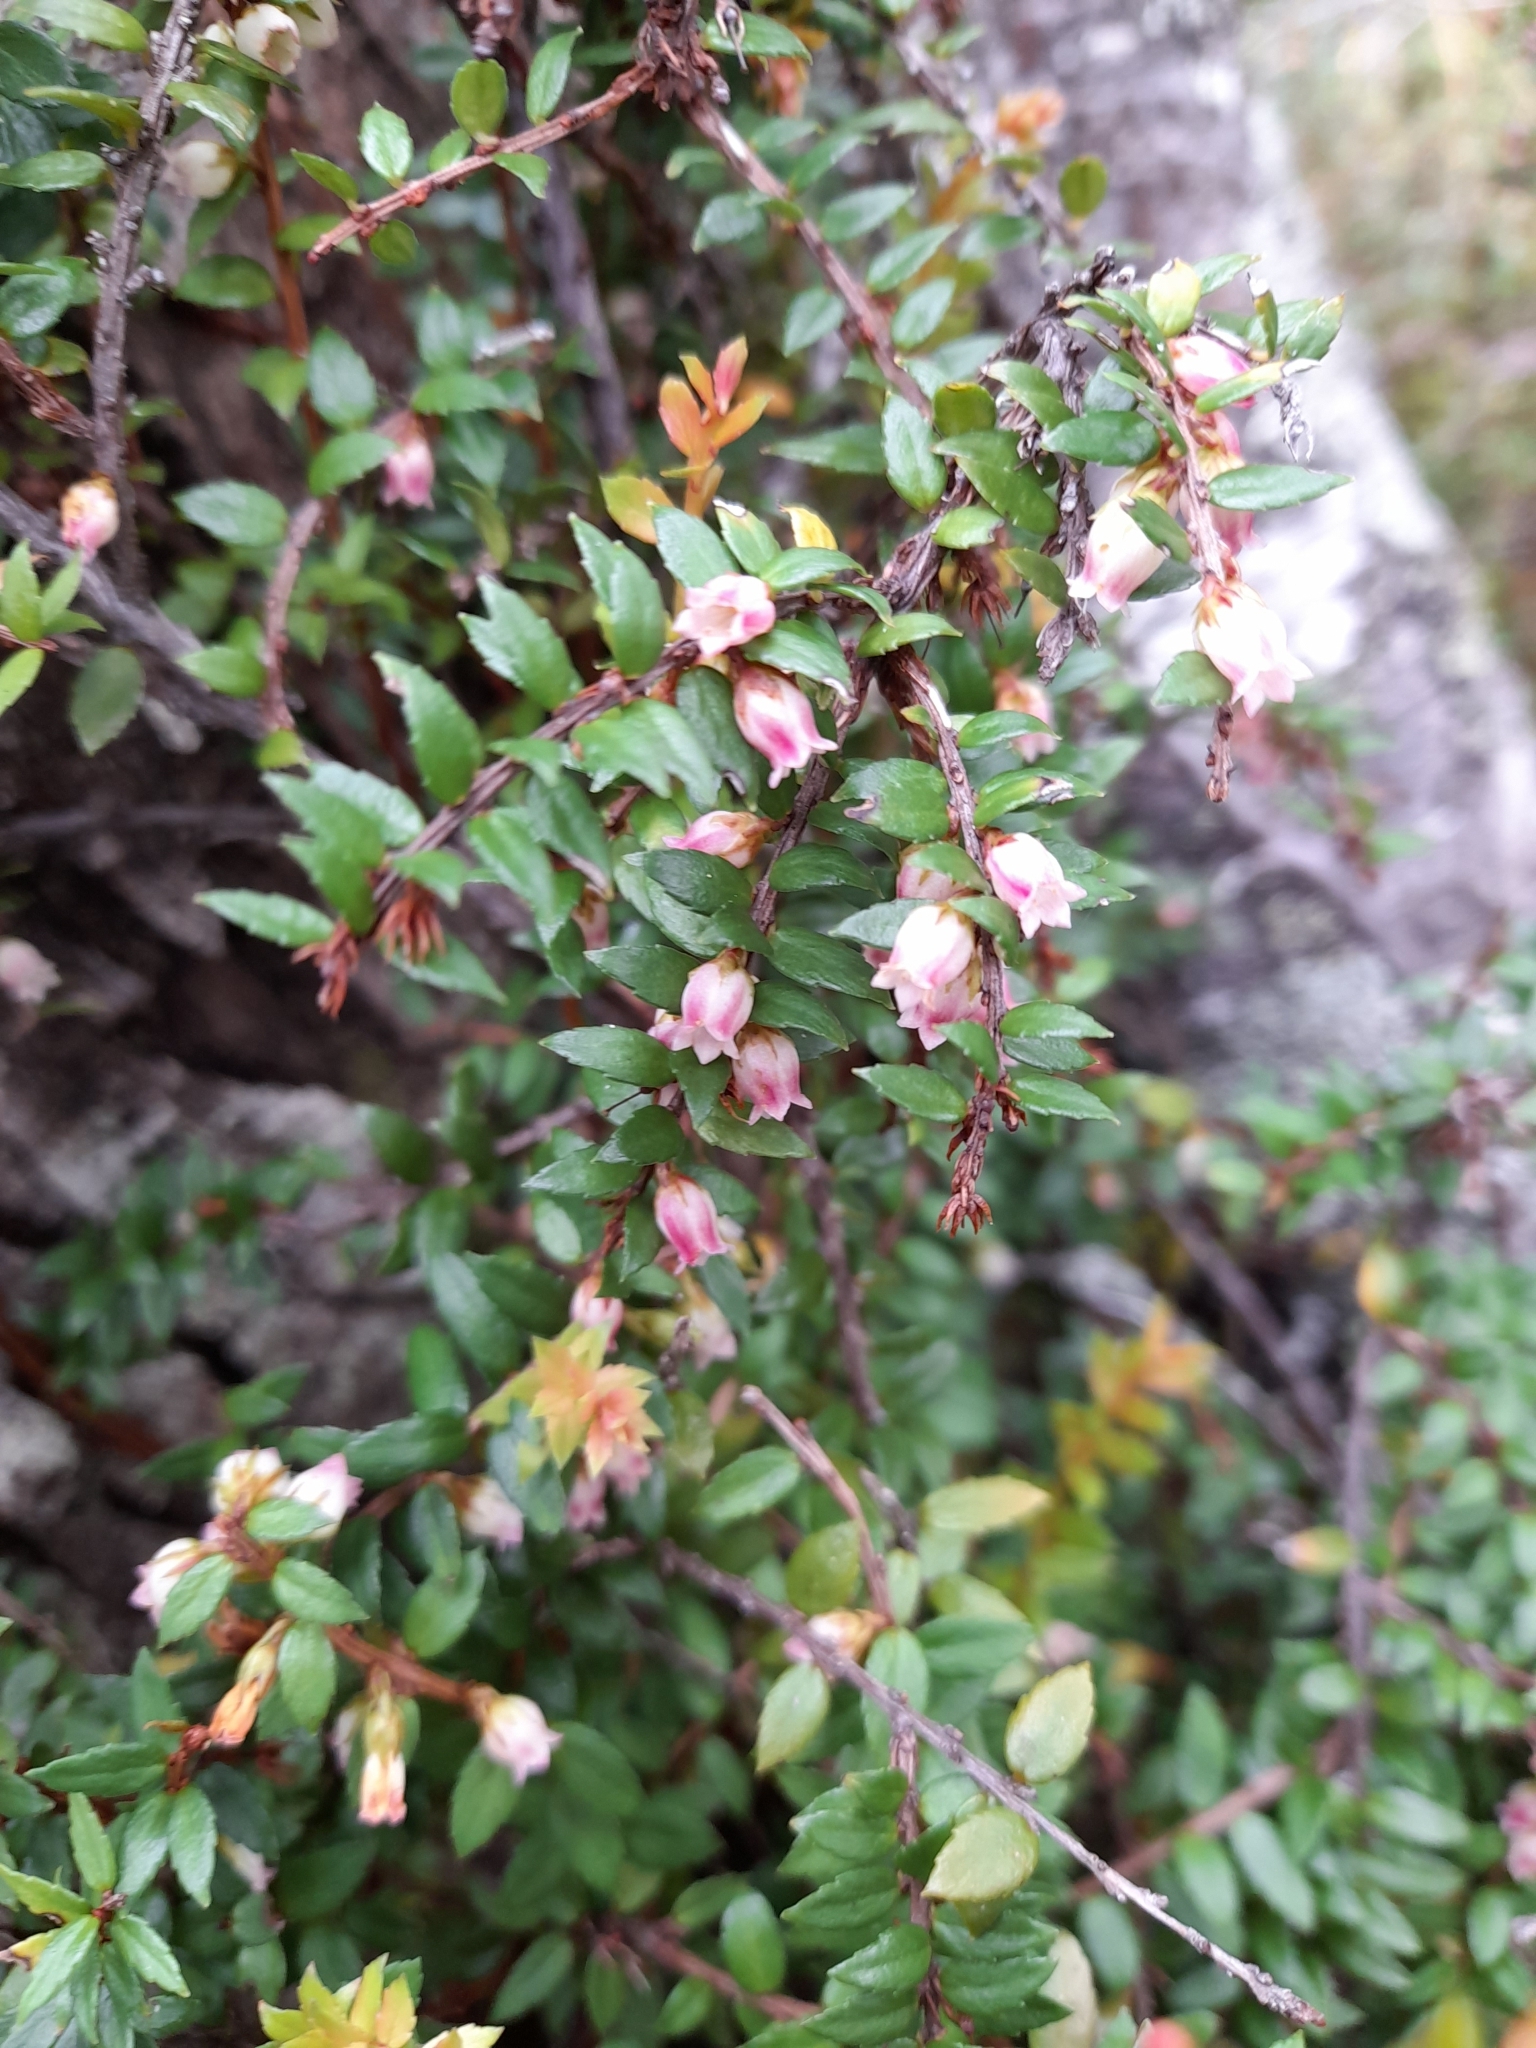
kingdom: Plantae
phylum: Tracheophyta
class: Magnoliopsida
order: Ericales
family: Ericaceae
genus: Lebetanthus
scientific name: Lebetanthus myrsinites
